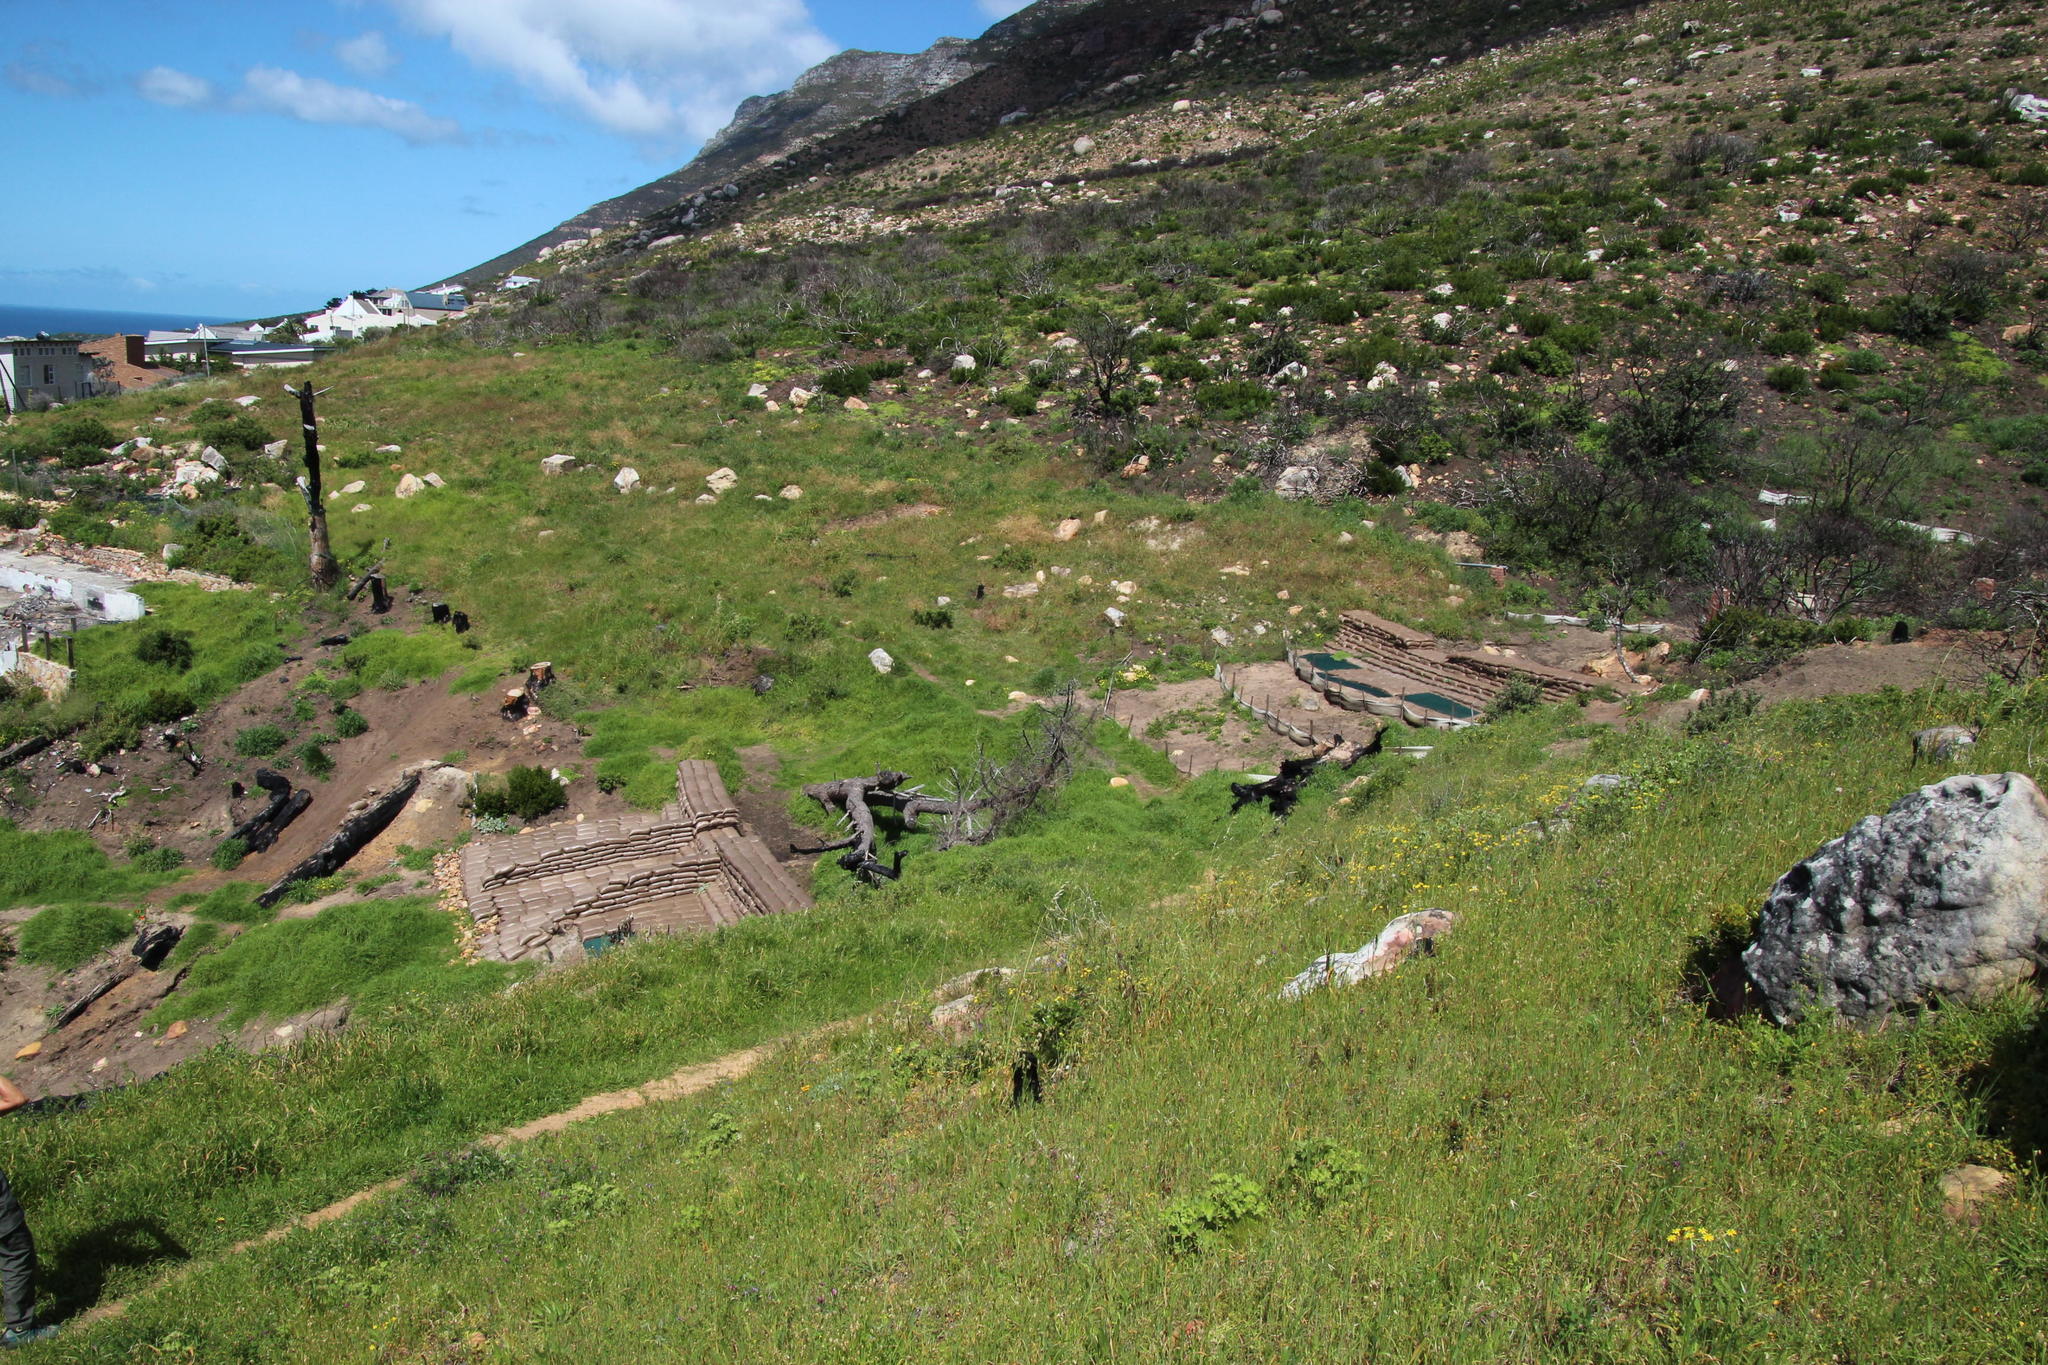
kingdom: Plantae
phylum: Tracheophyta
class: Liliopsida
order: Poales
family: Poaceae
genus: Cenchrus
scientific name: Cenchrus clandestinus
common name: Kikuyugrass
